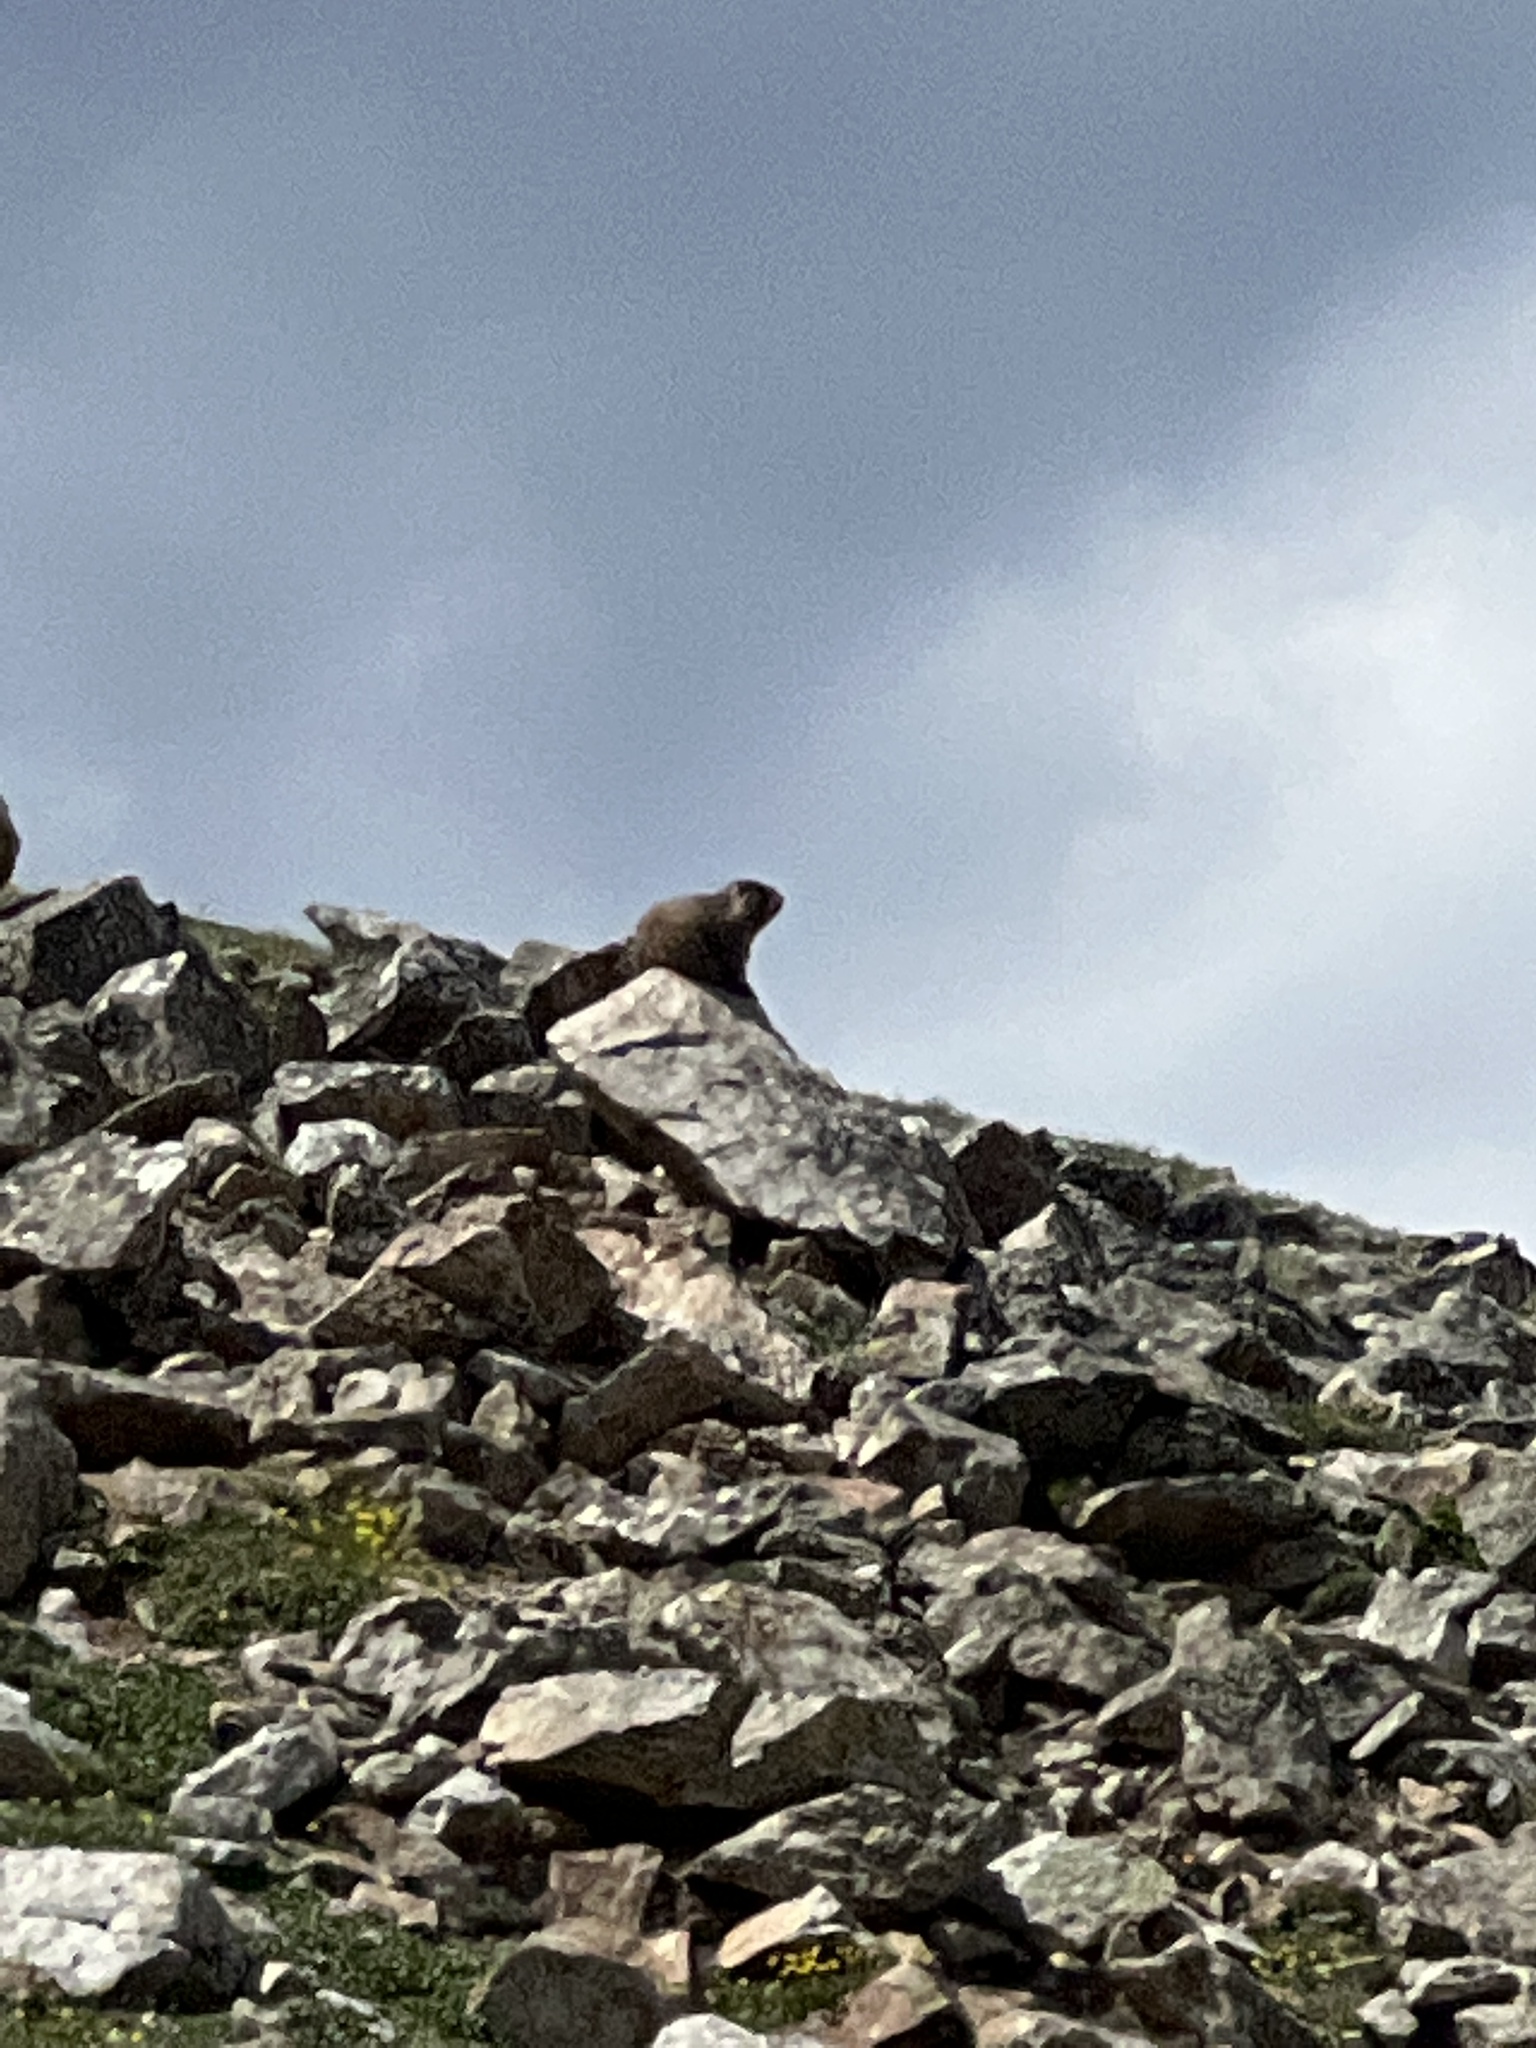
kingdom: Animalia
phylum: Chordata
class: Mammalia
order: Rodentia
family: Sciuridae
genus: Marmota
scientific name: Marmota flaviventris
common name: Yellow-bellied marmot
